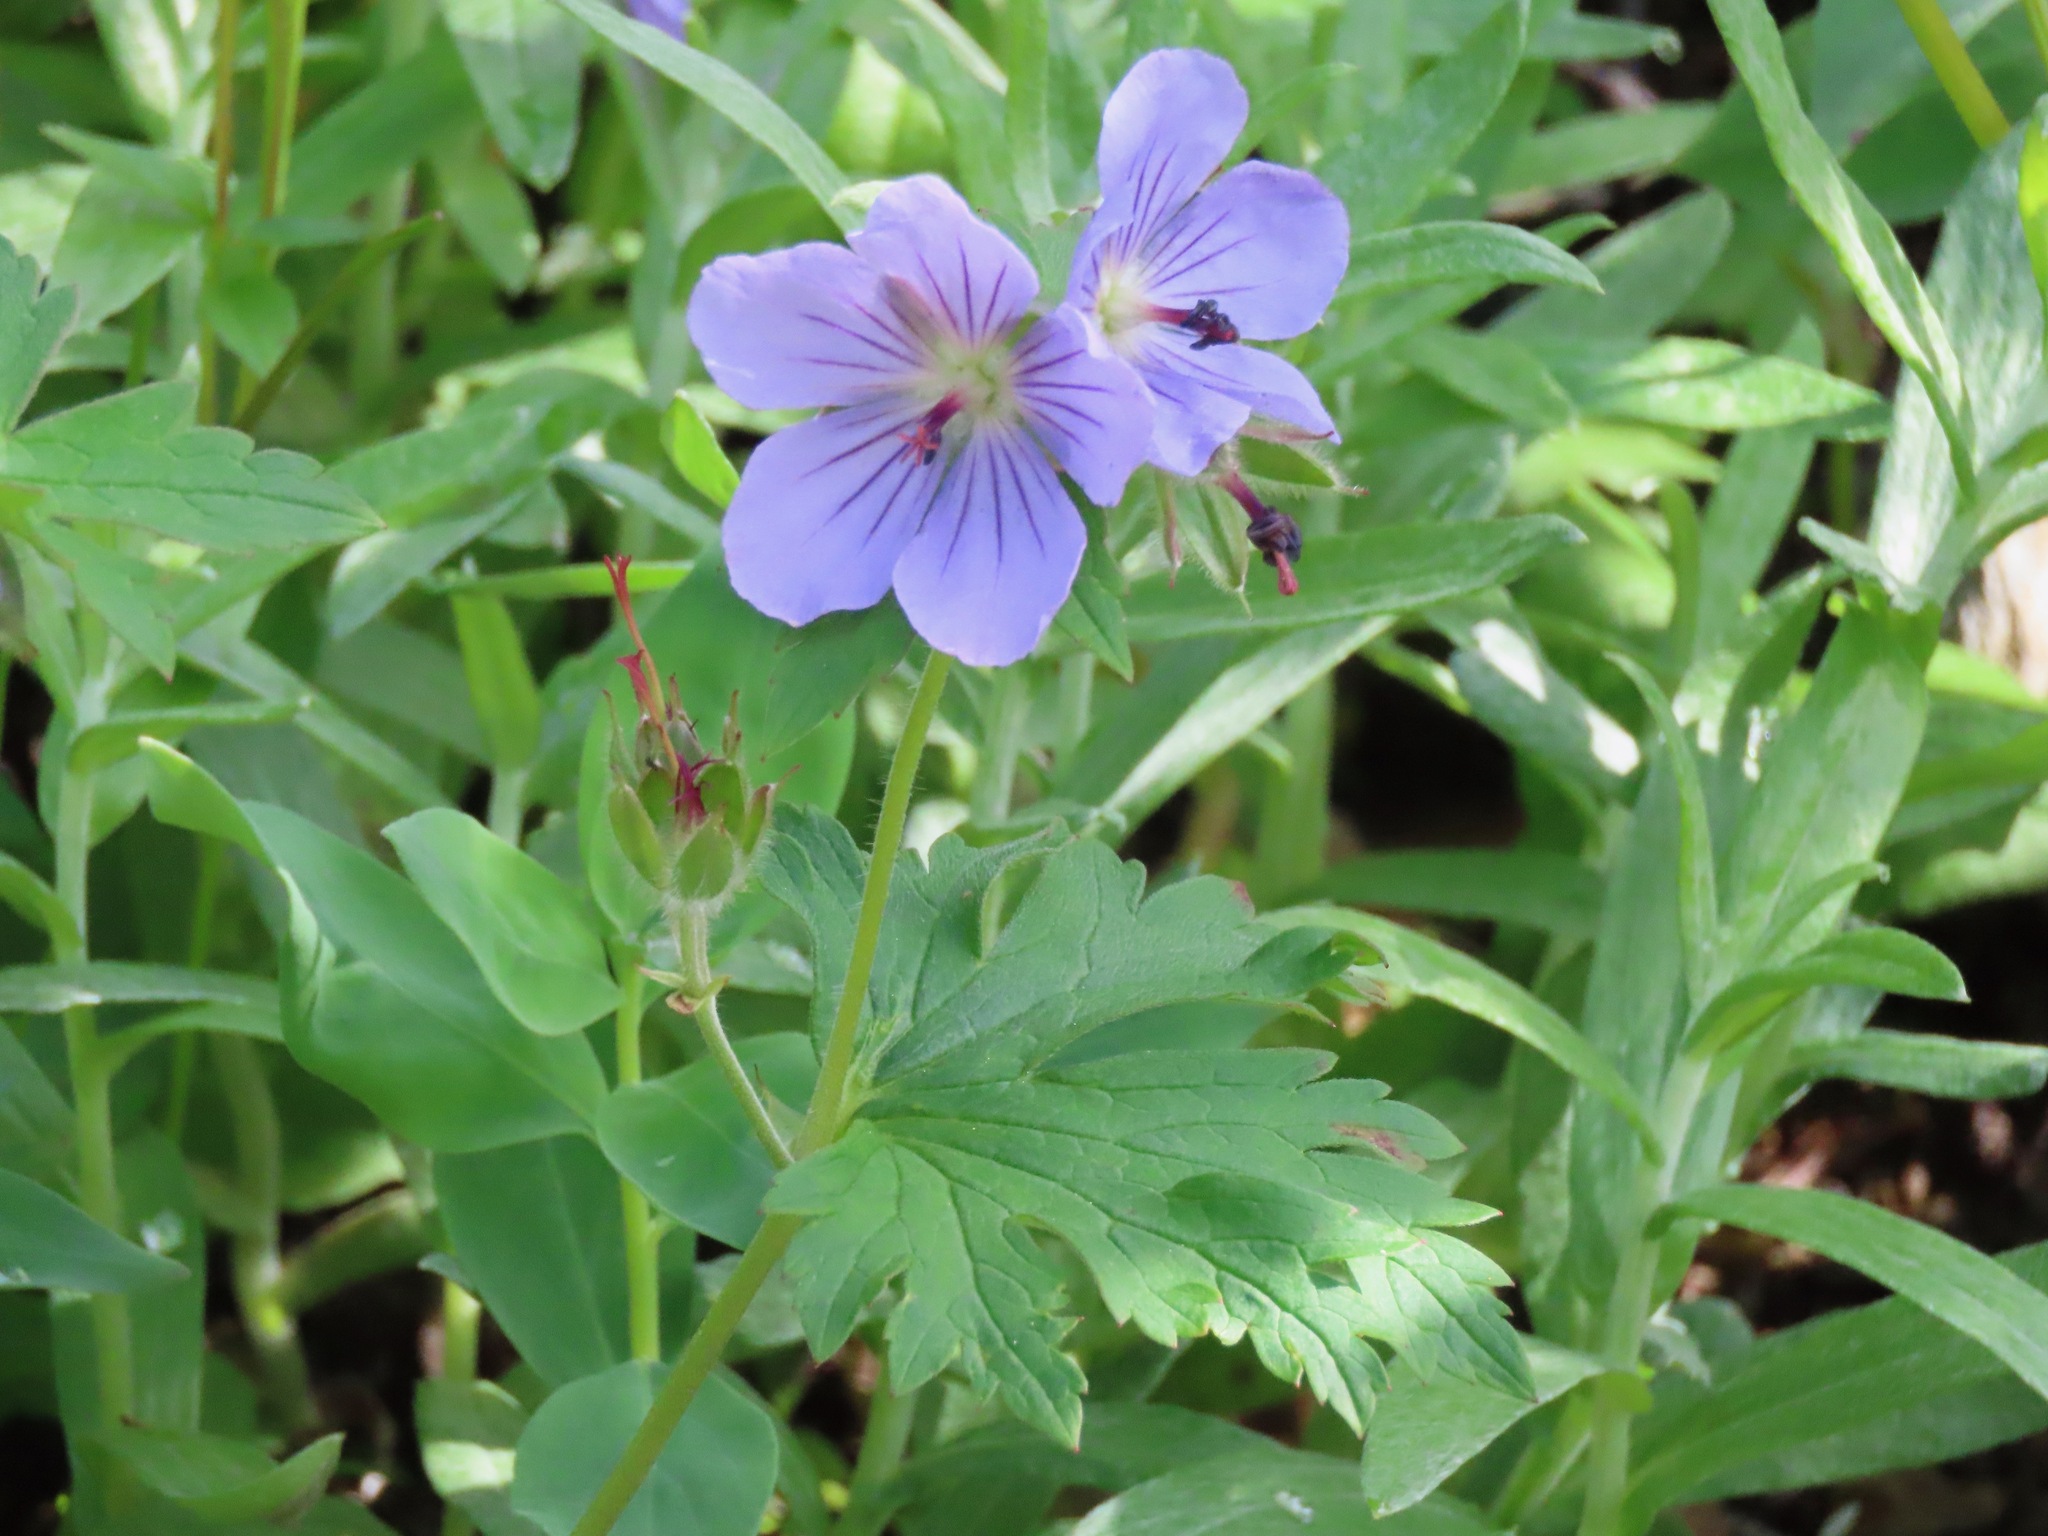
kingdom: Plantae
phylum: Tracheophyta
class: Magnoliopsida
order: Geraniales
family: Geraniaceae
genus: Geranium
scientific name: Geranium erianthum
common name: Northern crane's-bill
